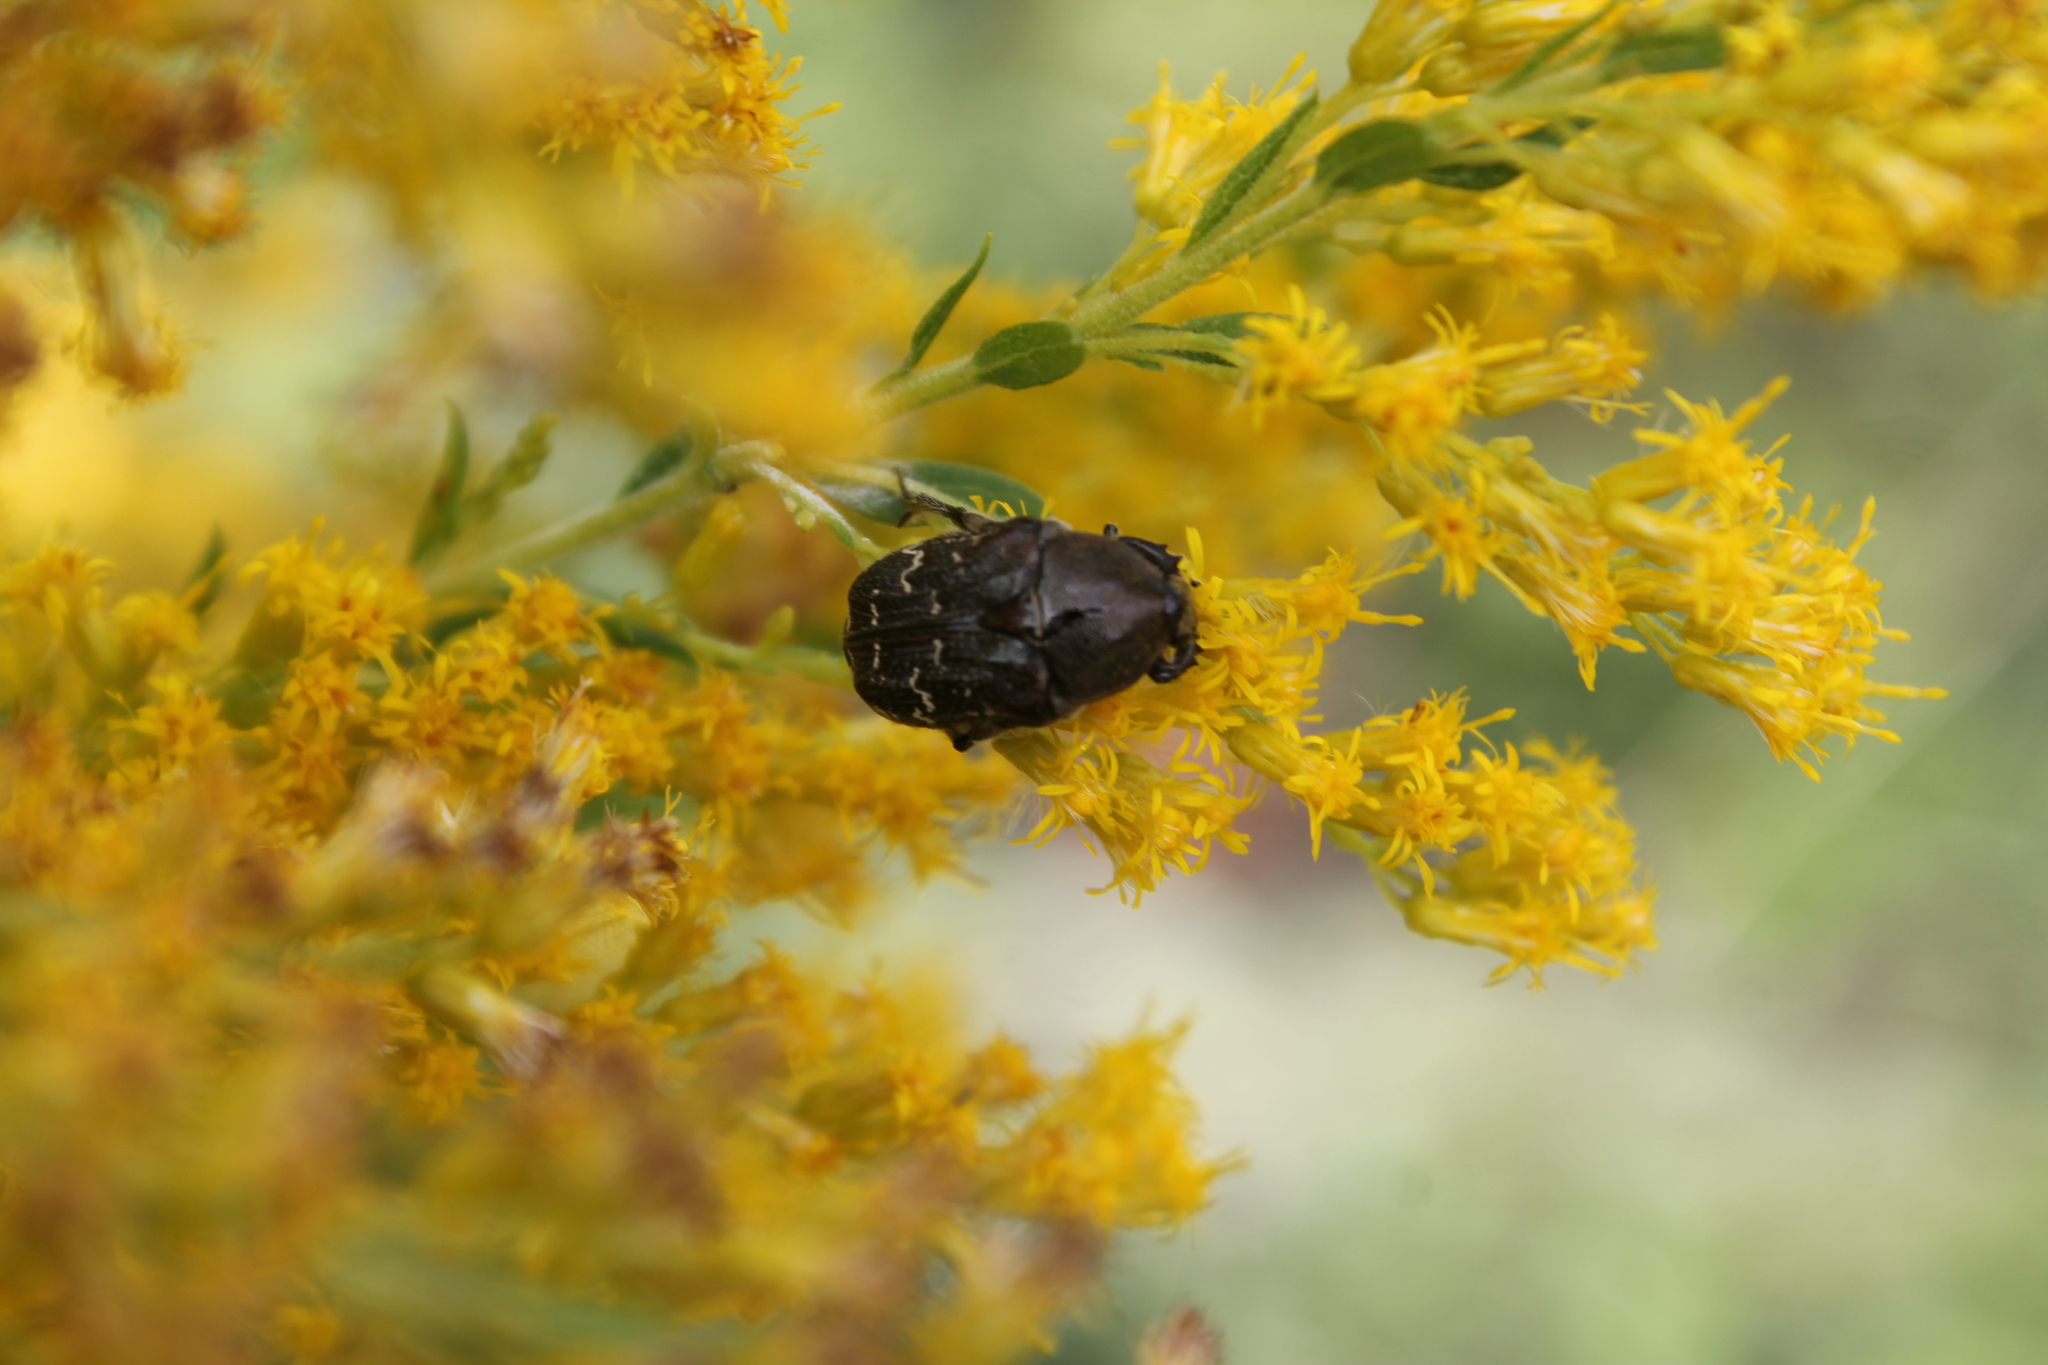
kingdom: Animalia
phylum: Arthropoda
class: Insecta
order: Coleoptera
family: Scarabaeidae
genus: Euphoria
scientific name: Euphoria sepulcralis
